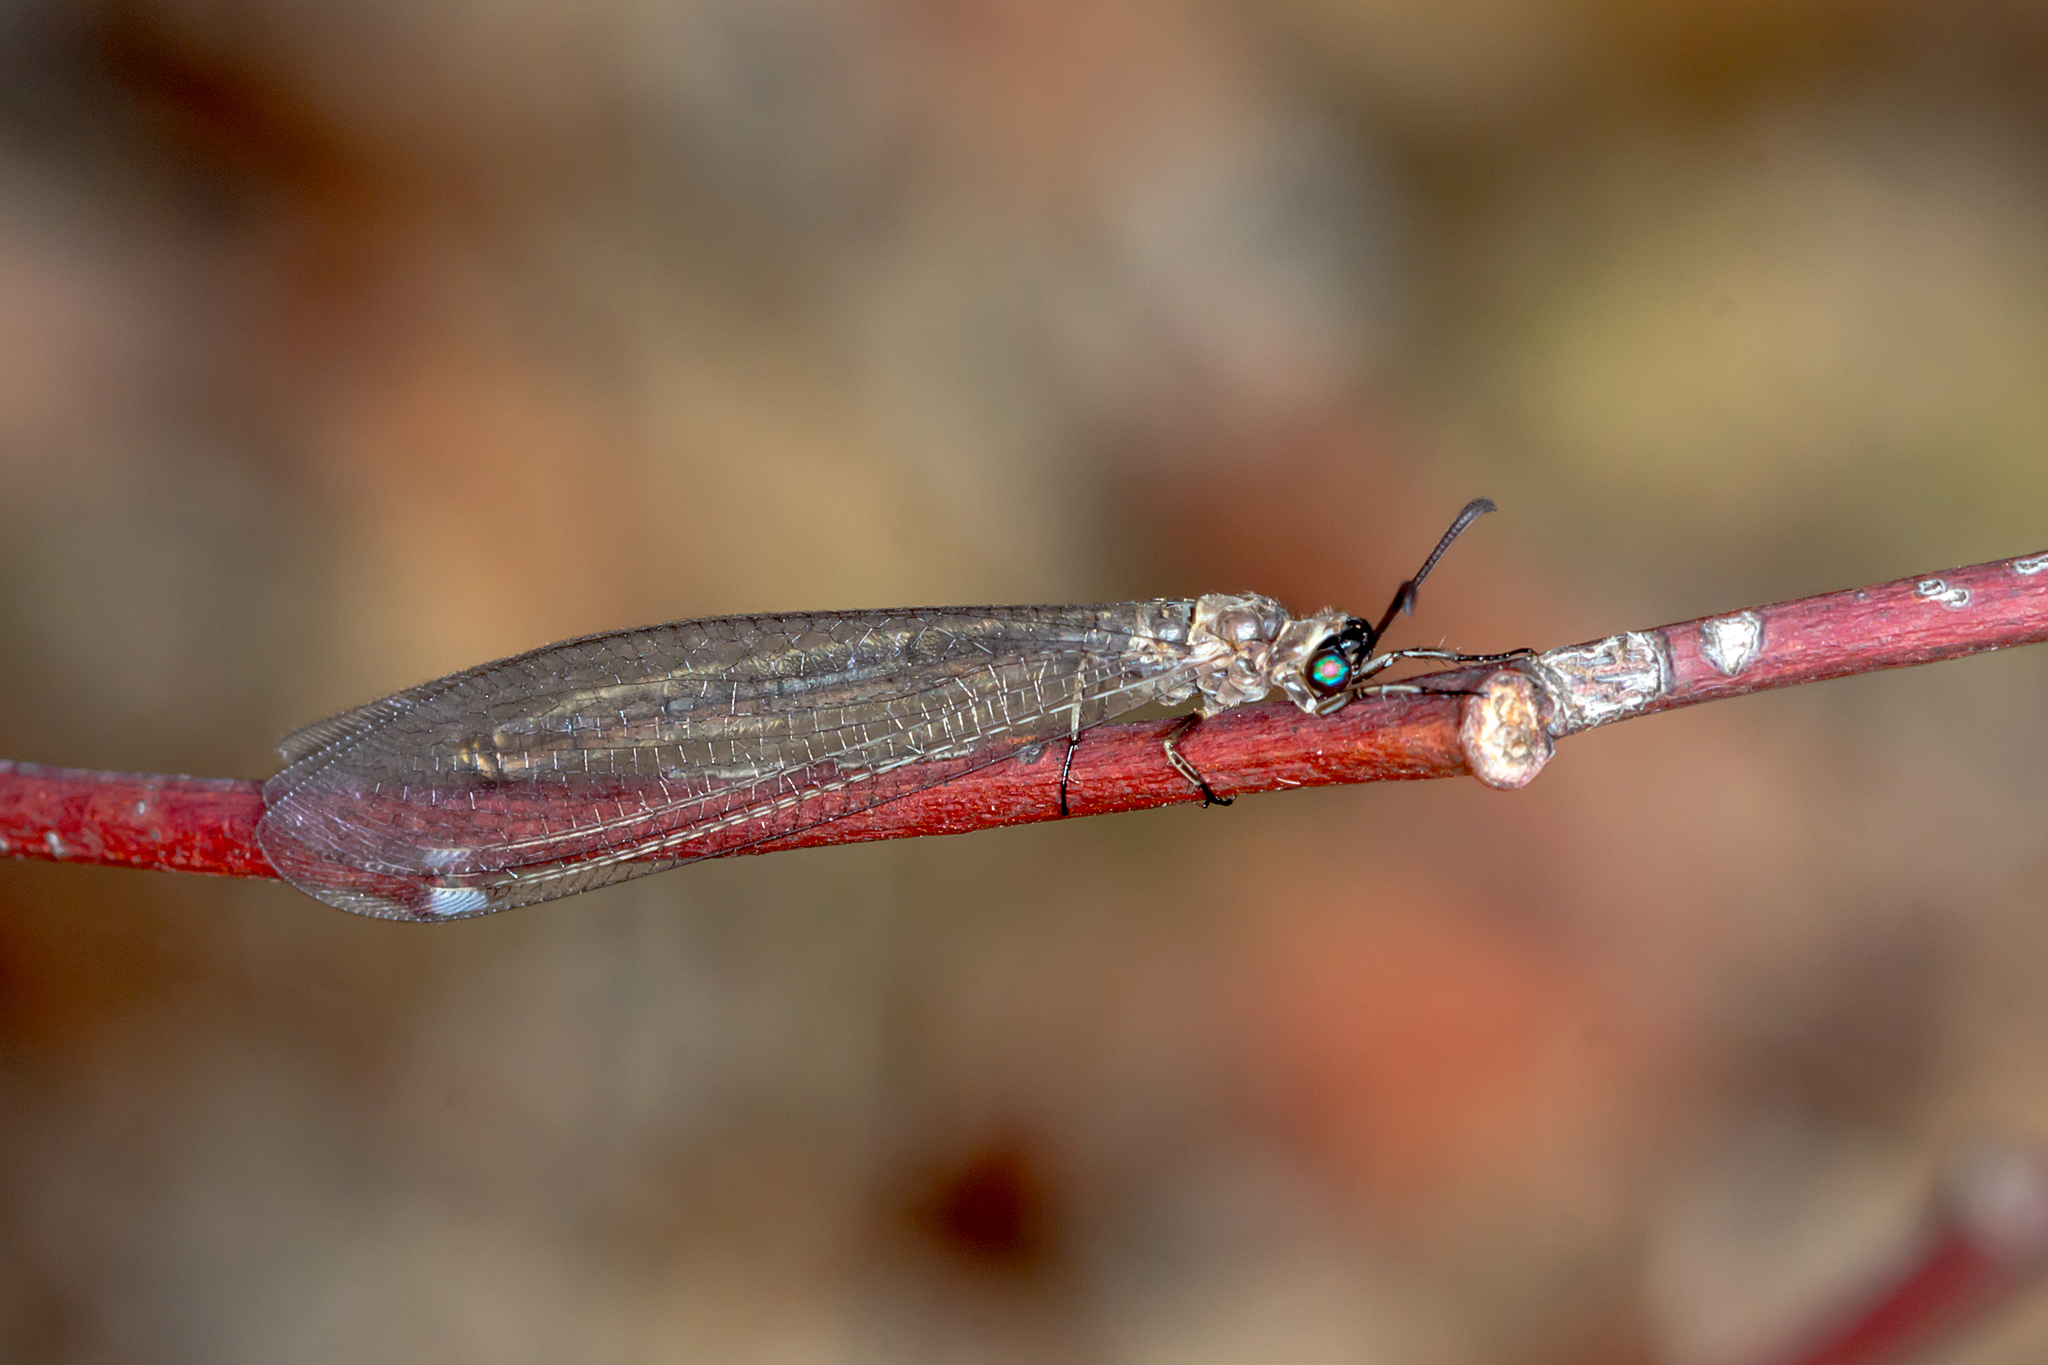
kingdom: Animalia
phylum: Arthropoda
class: Insecta
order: Neuroptera
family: Myrmeleontidae
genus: Myrmeleon
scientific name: Myrmeleon acer
